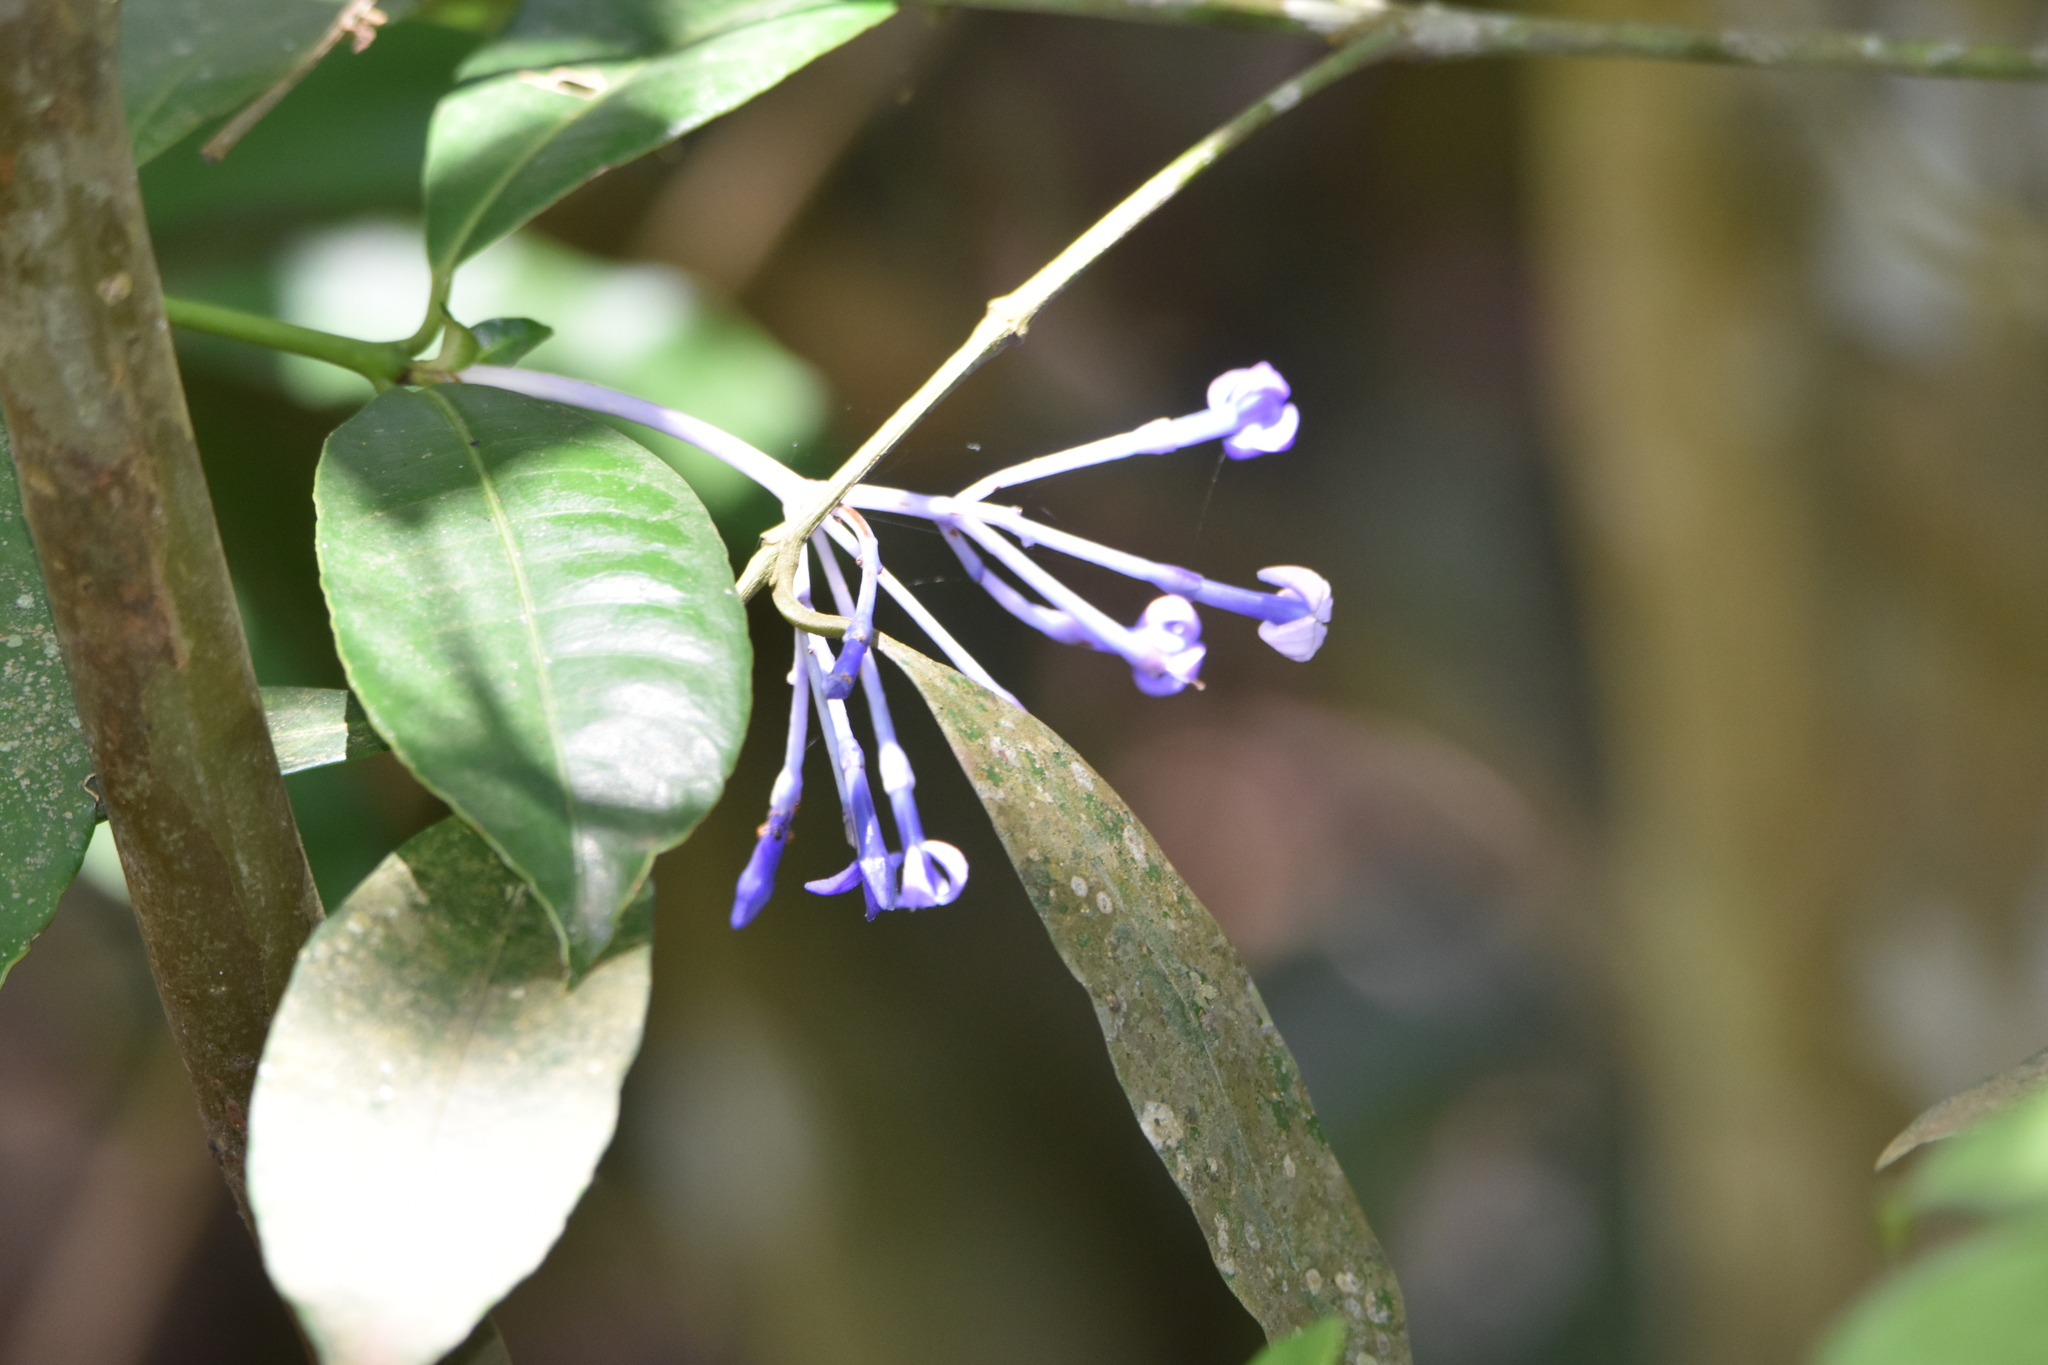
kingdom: Plantae
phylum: Tracheophyta
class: Magnoliopsida
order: Gentianales
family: Rubiaceae
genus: Faramea
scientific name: Faramea hyacinthina
